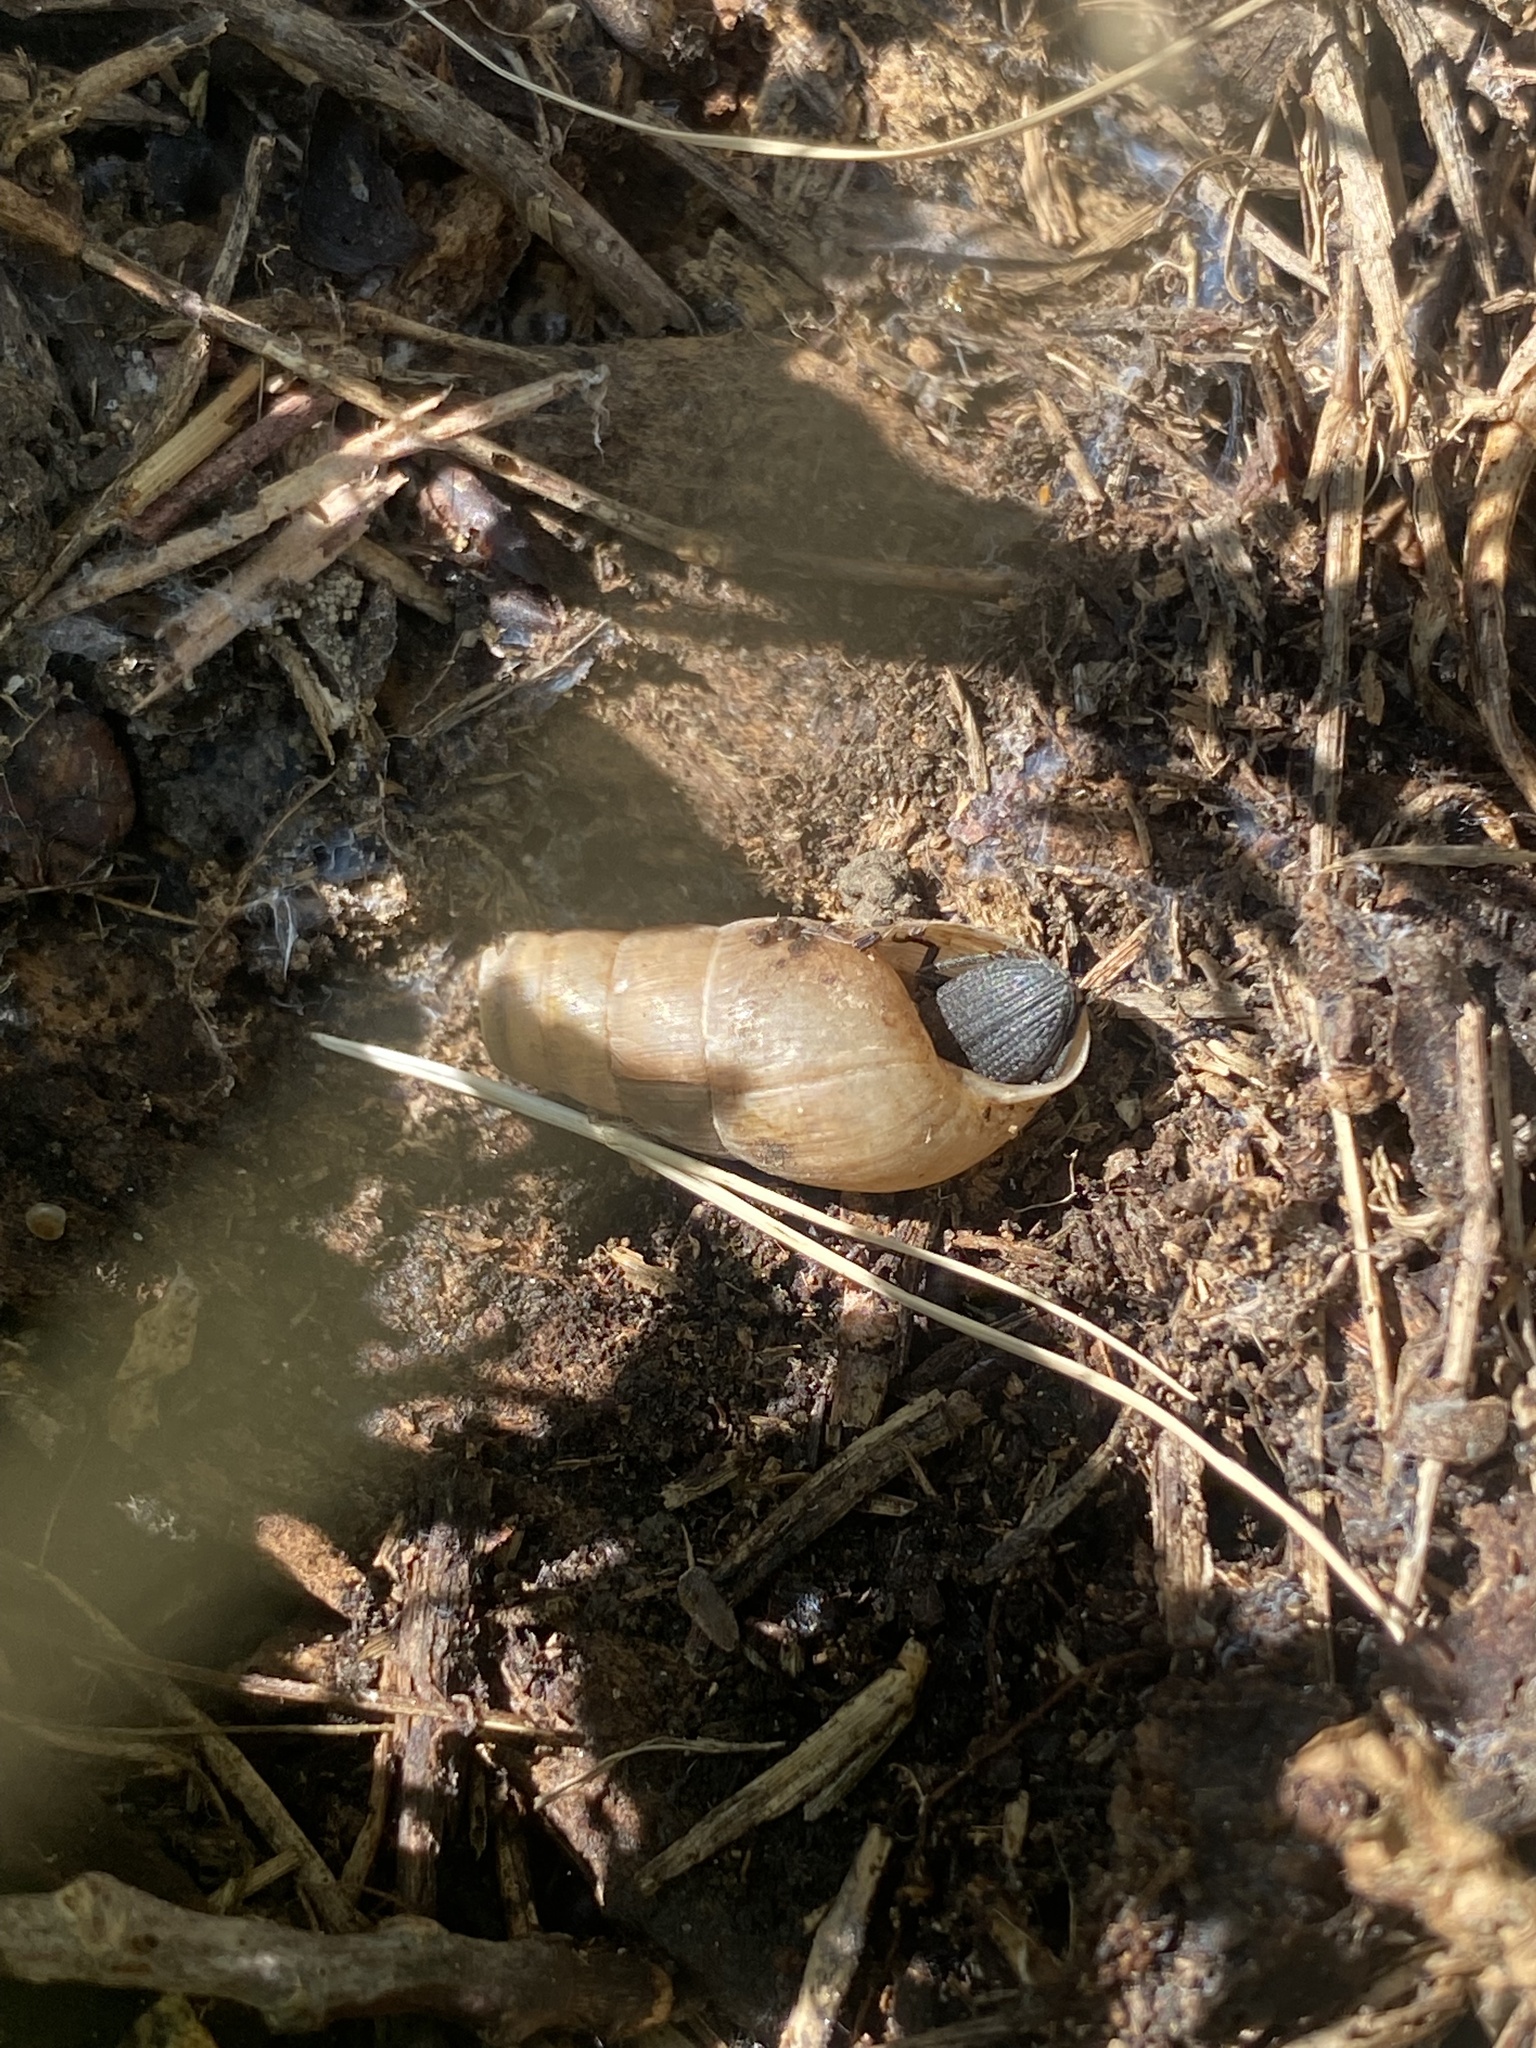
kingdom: Animalia
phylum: Mollusca
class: Gastropoda
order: Stylommatophora
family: Achatinidae
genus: Rumina
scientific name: Rumina decollata
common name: Decollate snail
